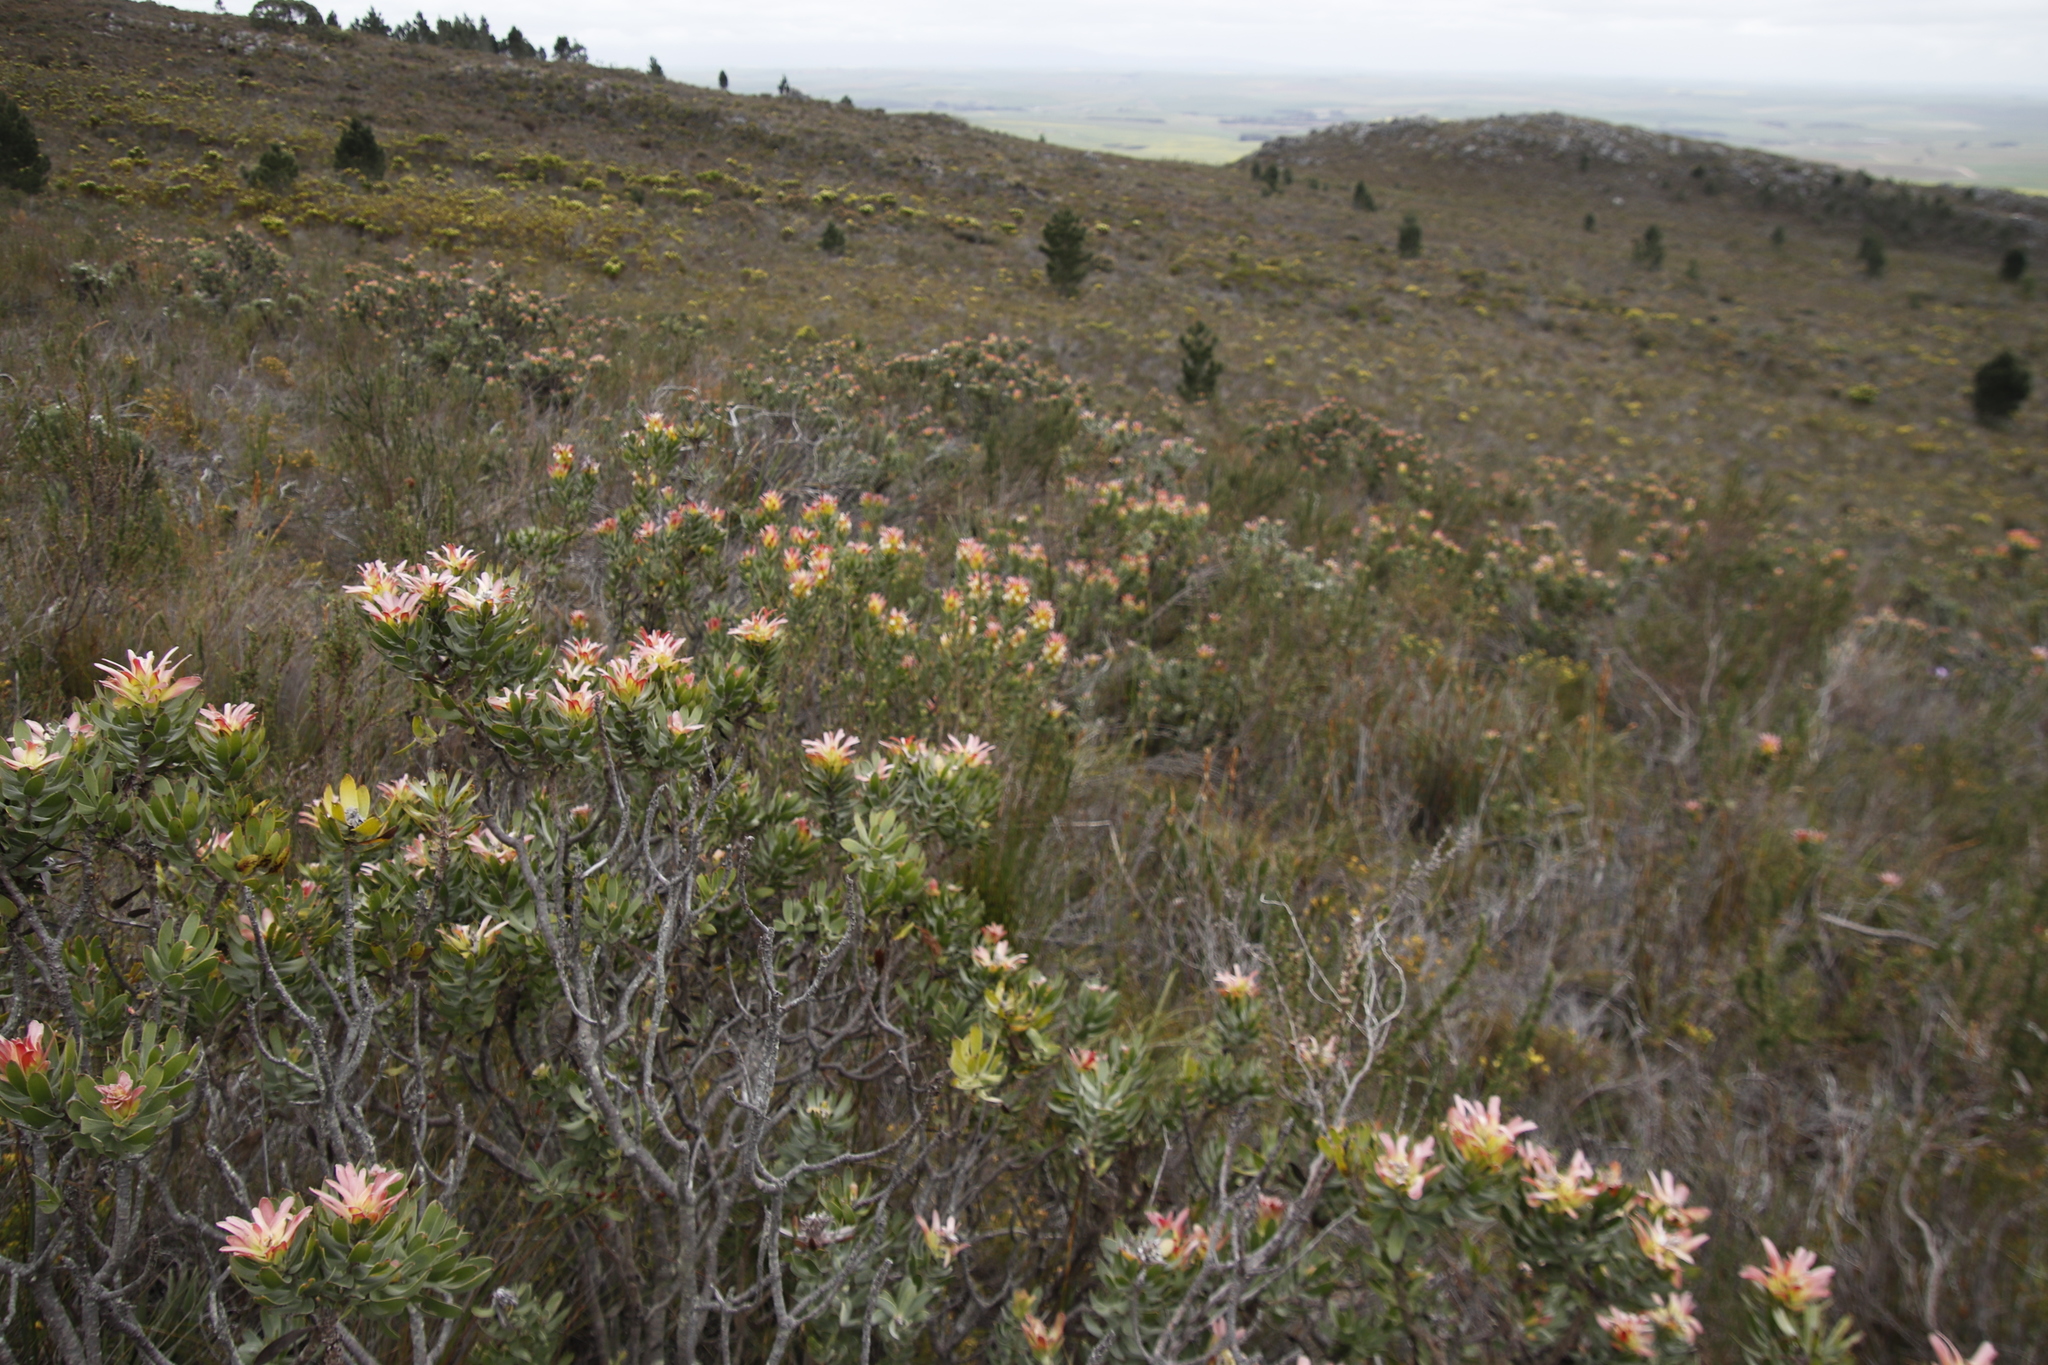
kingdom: Plantae
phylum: Tracheophyta
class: Magnoliopsida
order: Proteales
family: Proteaceae
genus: Mimetes
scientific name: Mimetes cucullatus
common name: Common pagoda
